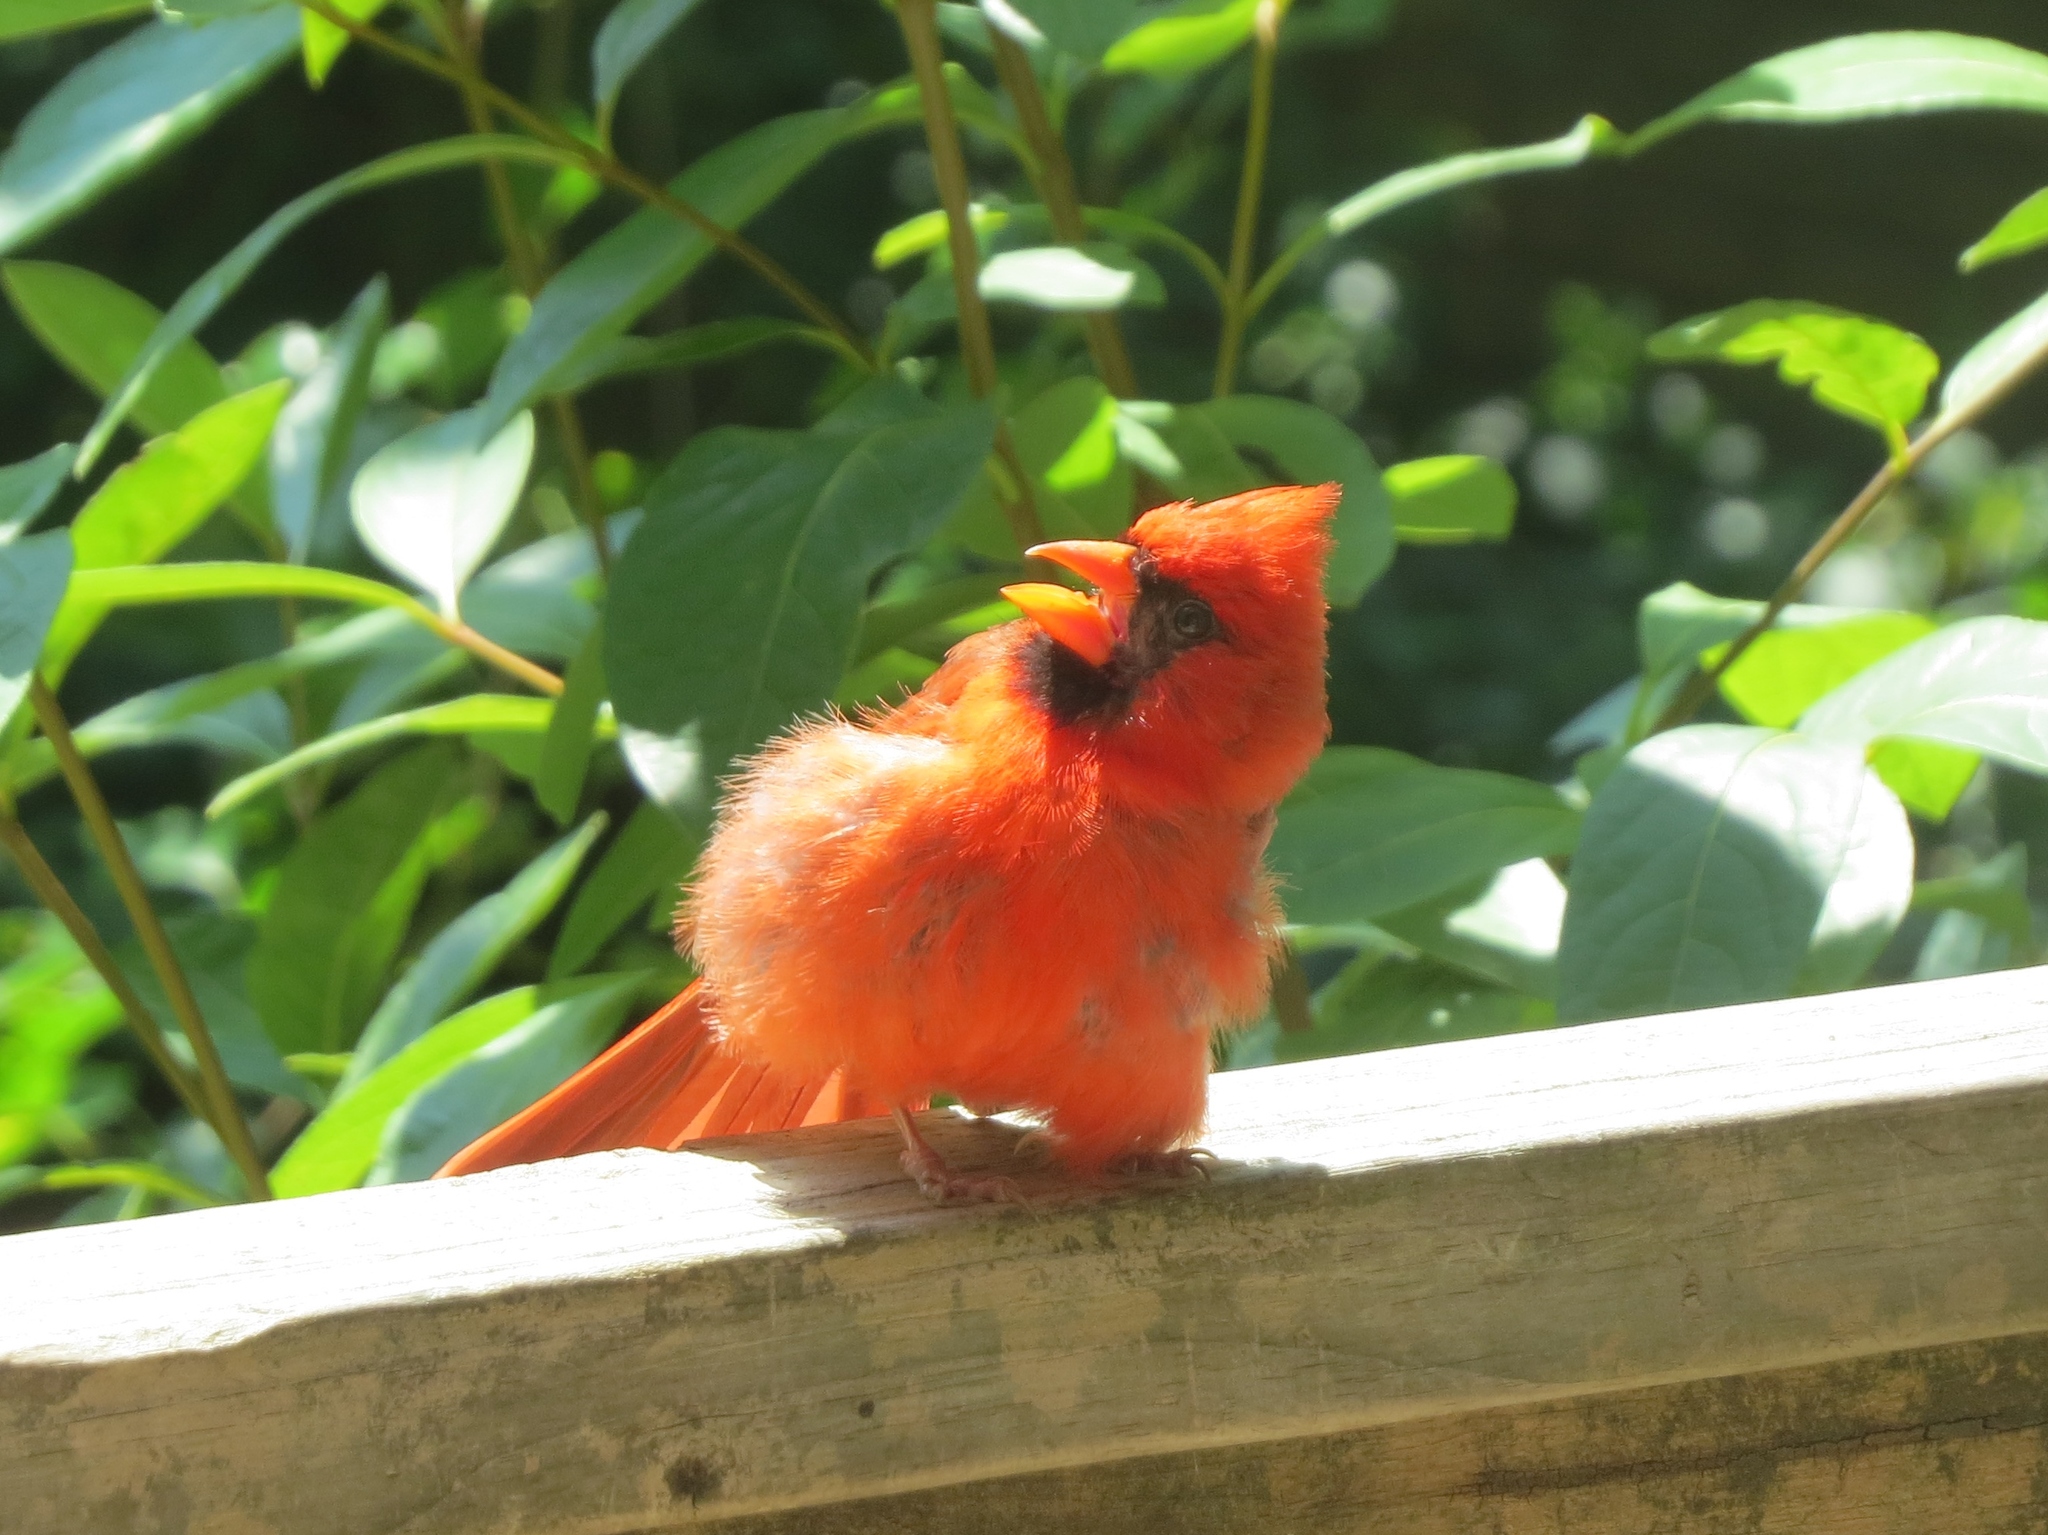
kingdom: Animalia
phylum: Chordata
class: Aves
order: Passeriformes
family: Cardinalidae
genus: Cardinalis
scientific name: Cardinalis cardinalis
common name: Northern cardinal
